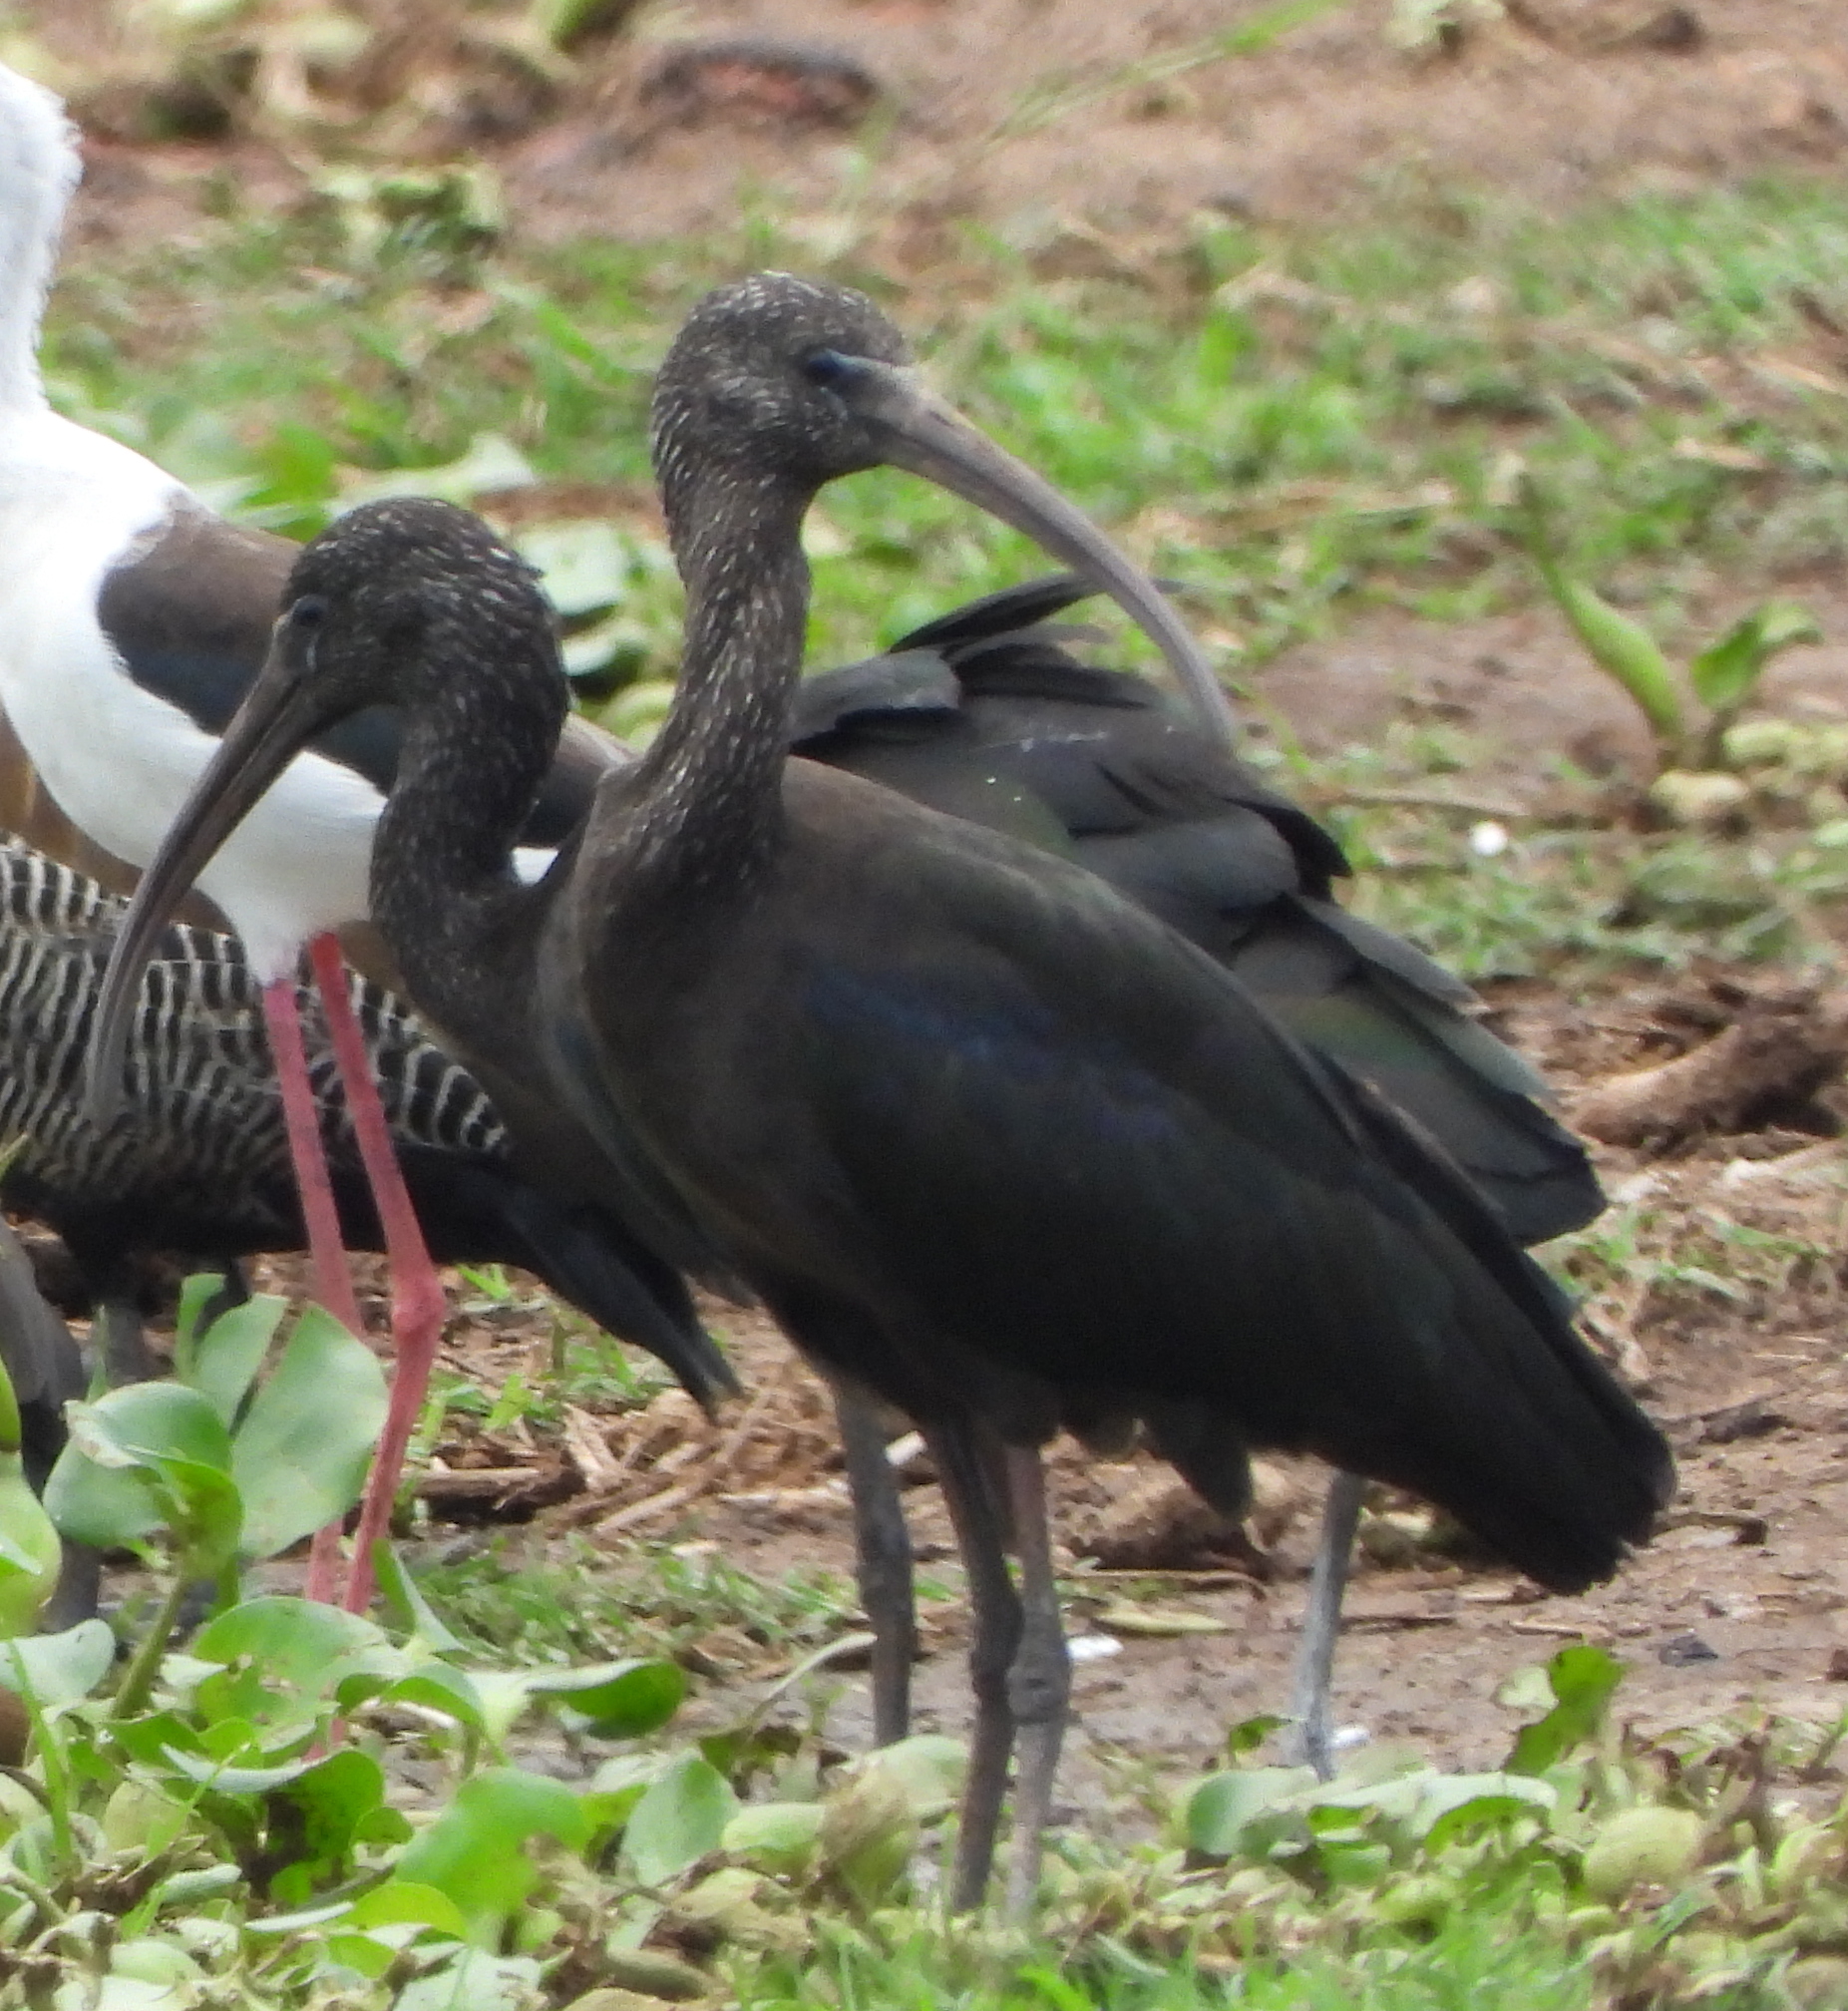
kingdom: Animalia
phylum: Chordata
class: Aves
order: Pelecaniformes
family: Threskiornithidae
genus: Plegadis
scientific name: Plegadis falcinellus
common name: Glossy ibis
